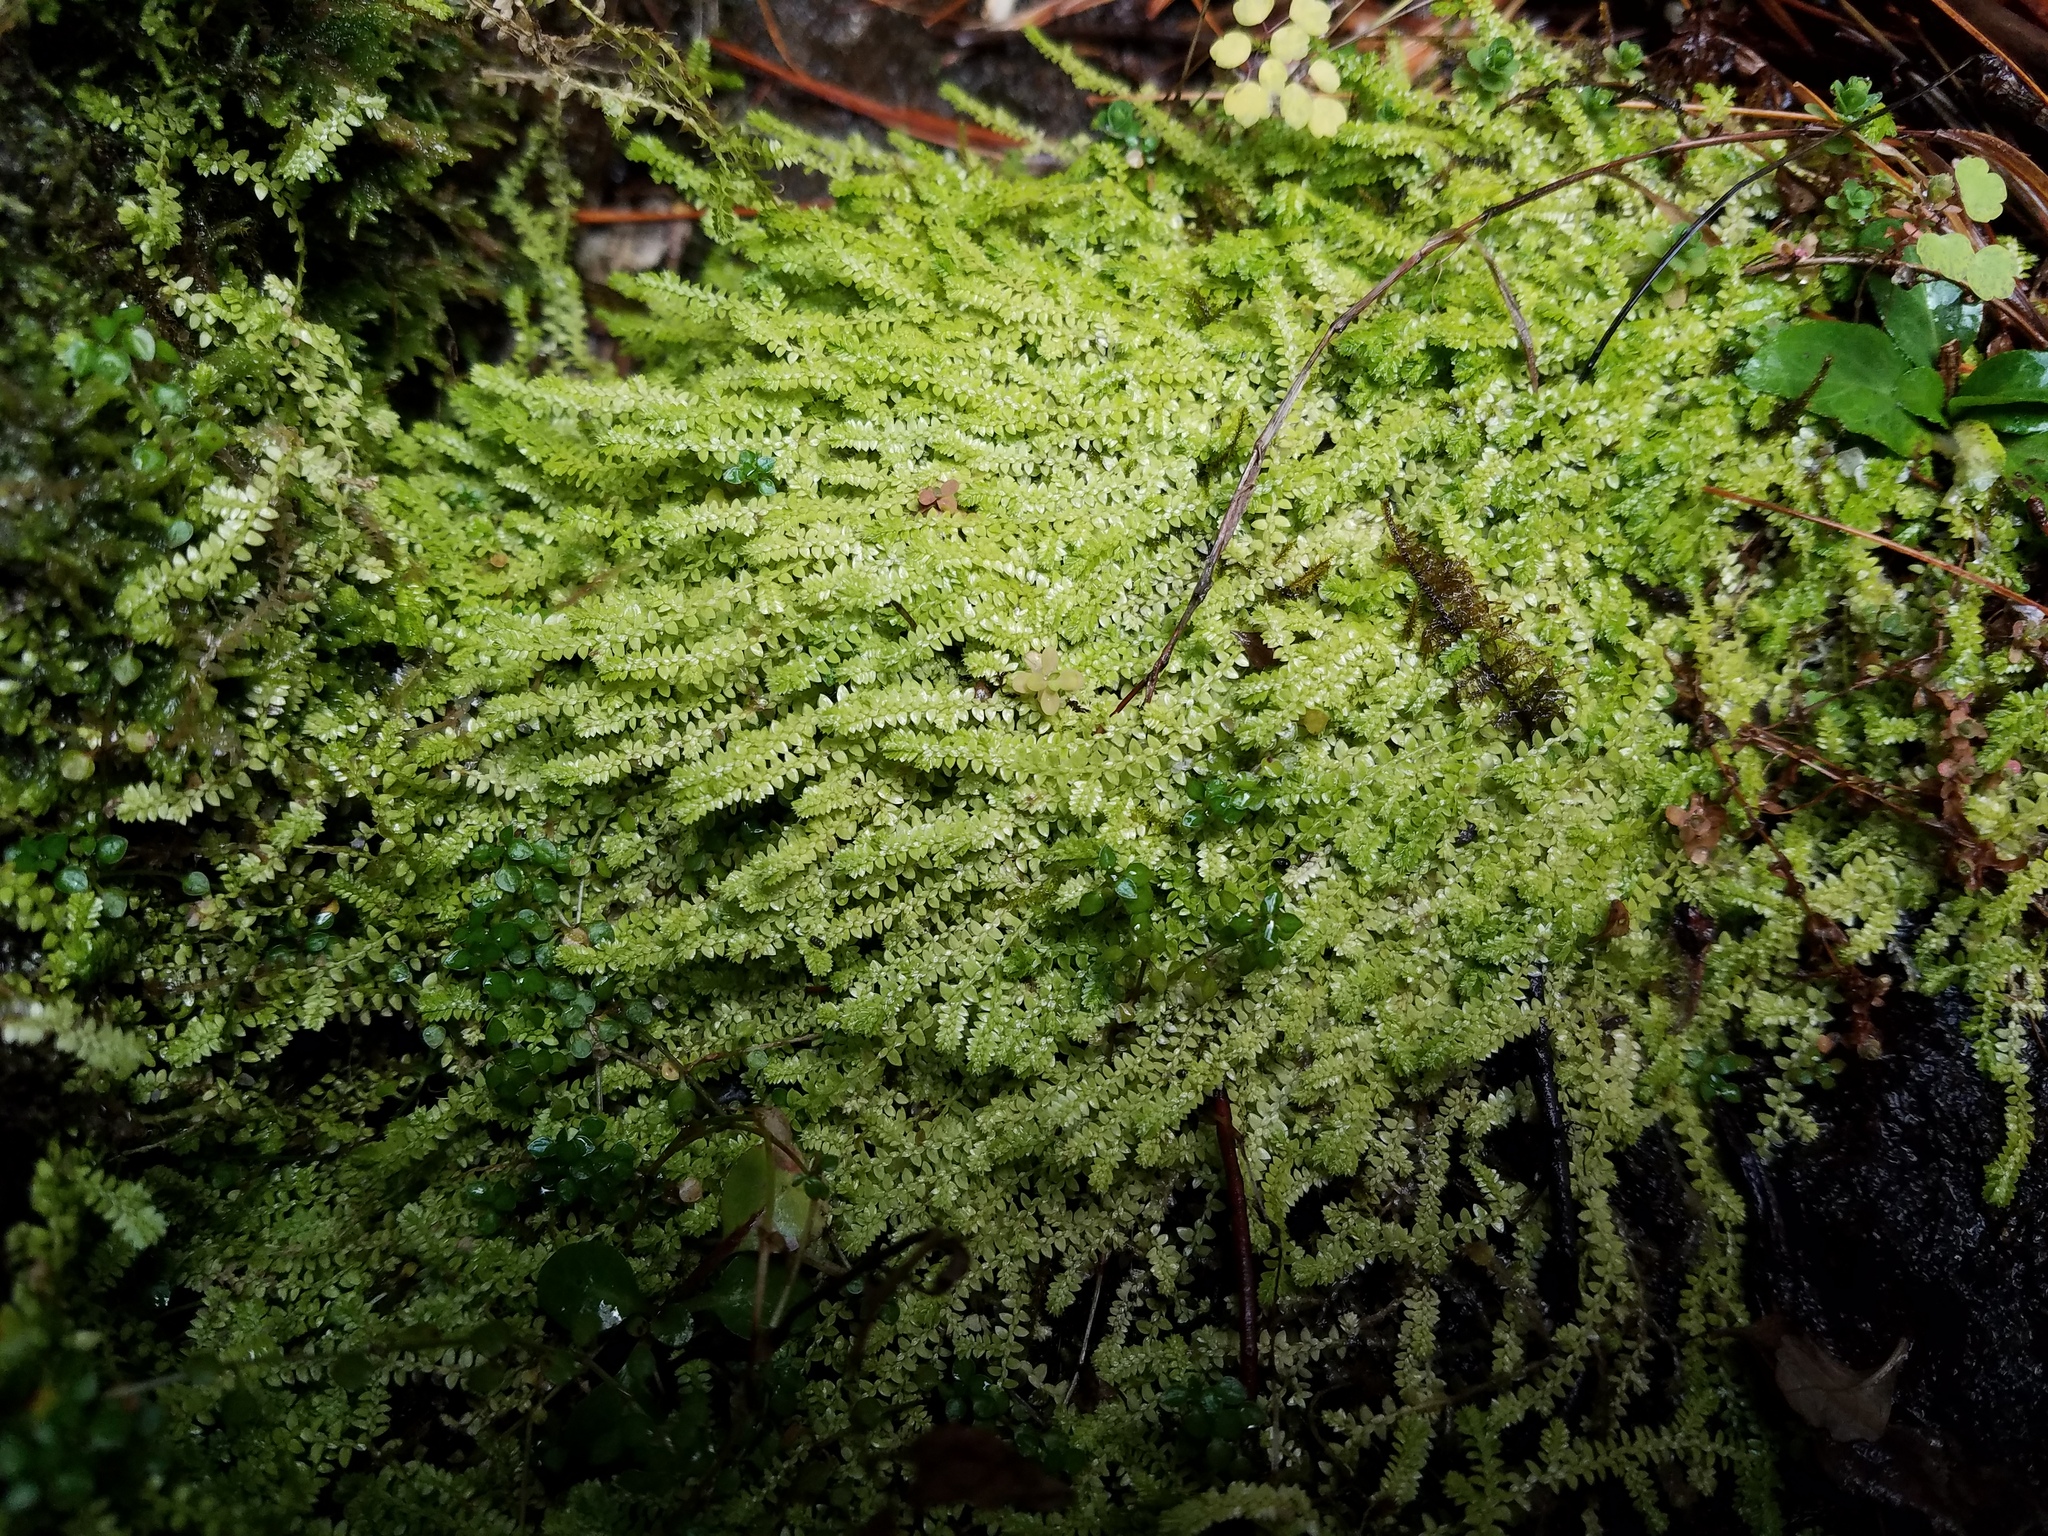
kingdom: Plantae
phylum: Tracheophyta
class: Lycopodiopsida
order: Selaginellales
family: Selaginellaceae
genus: Selaginella
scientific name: Selaginella apoda
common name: Creeping spikemoss
